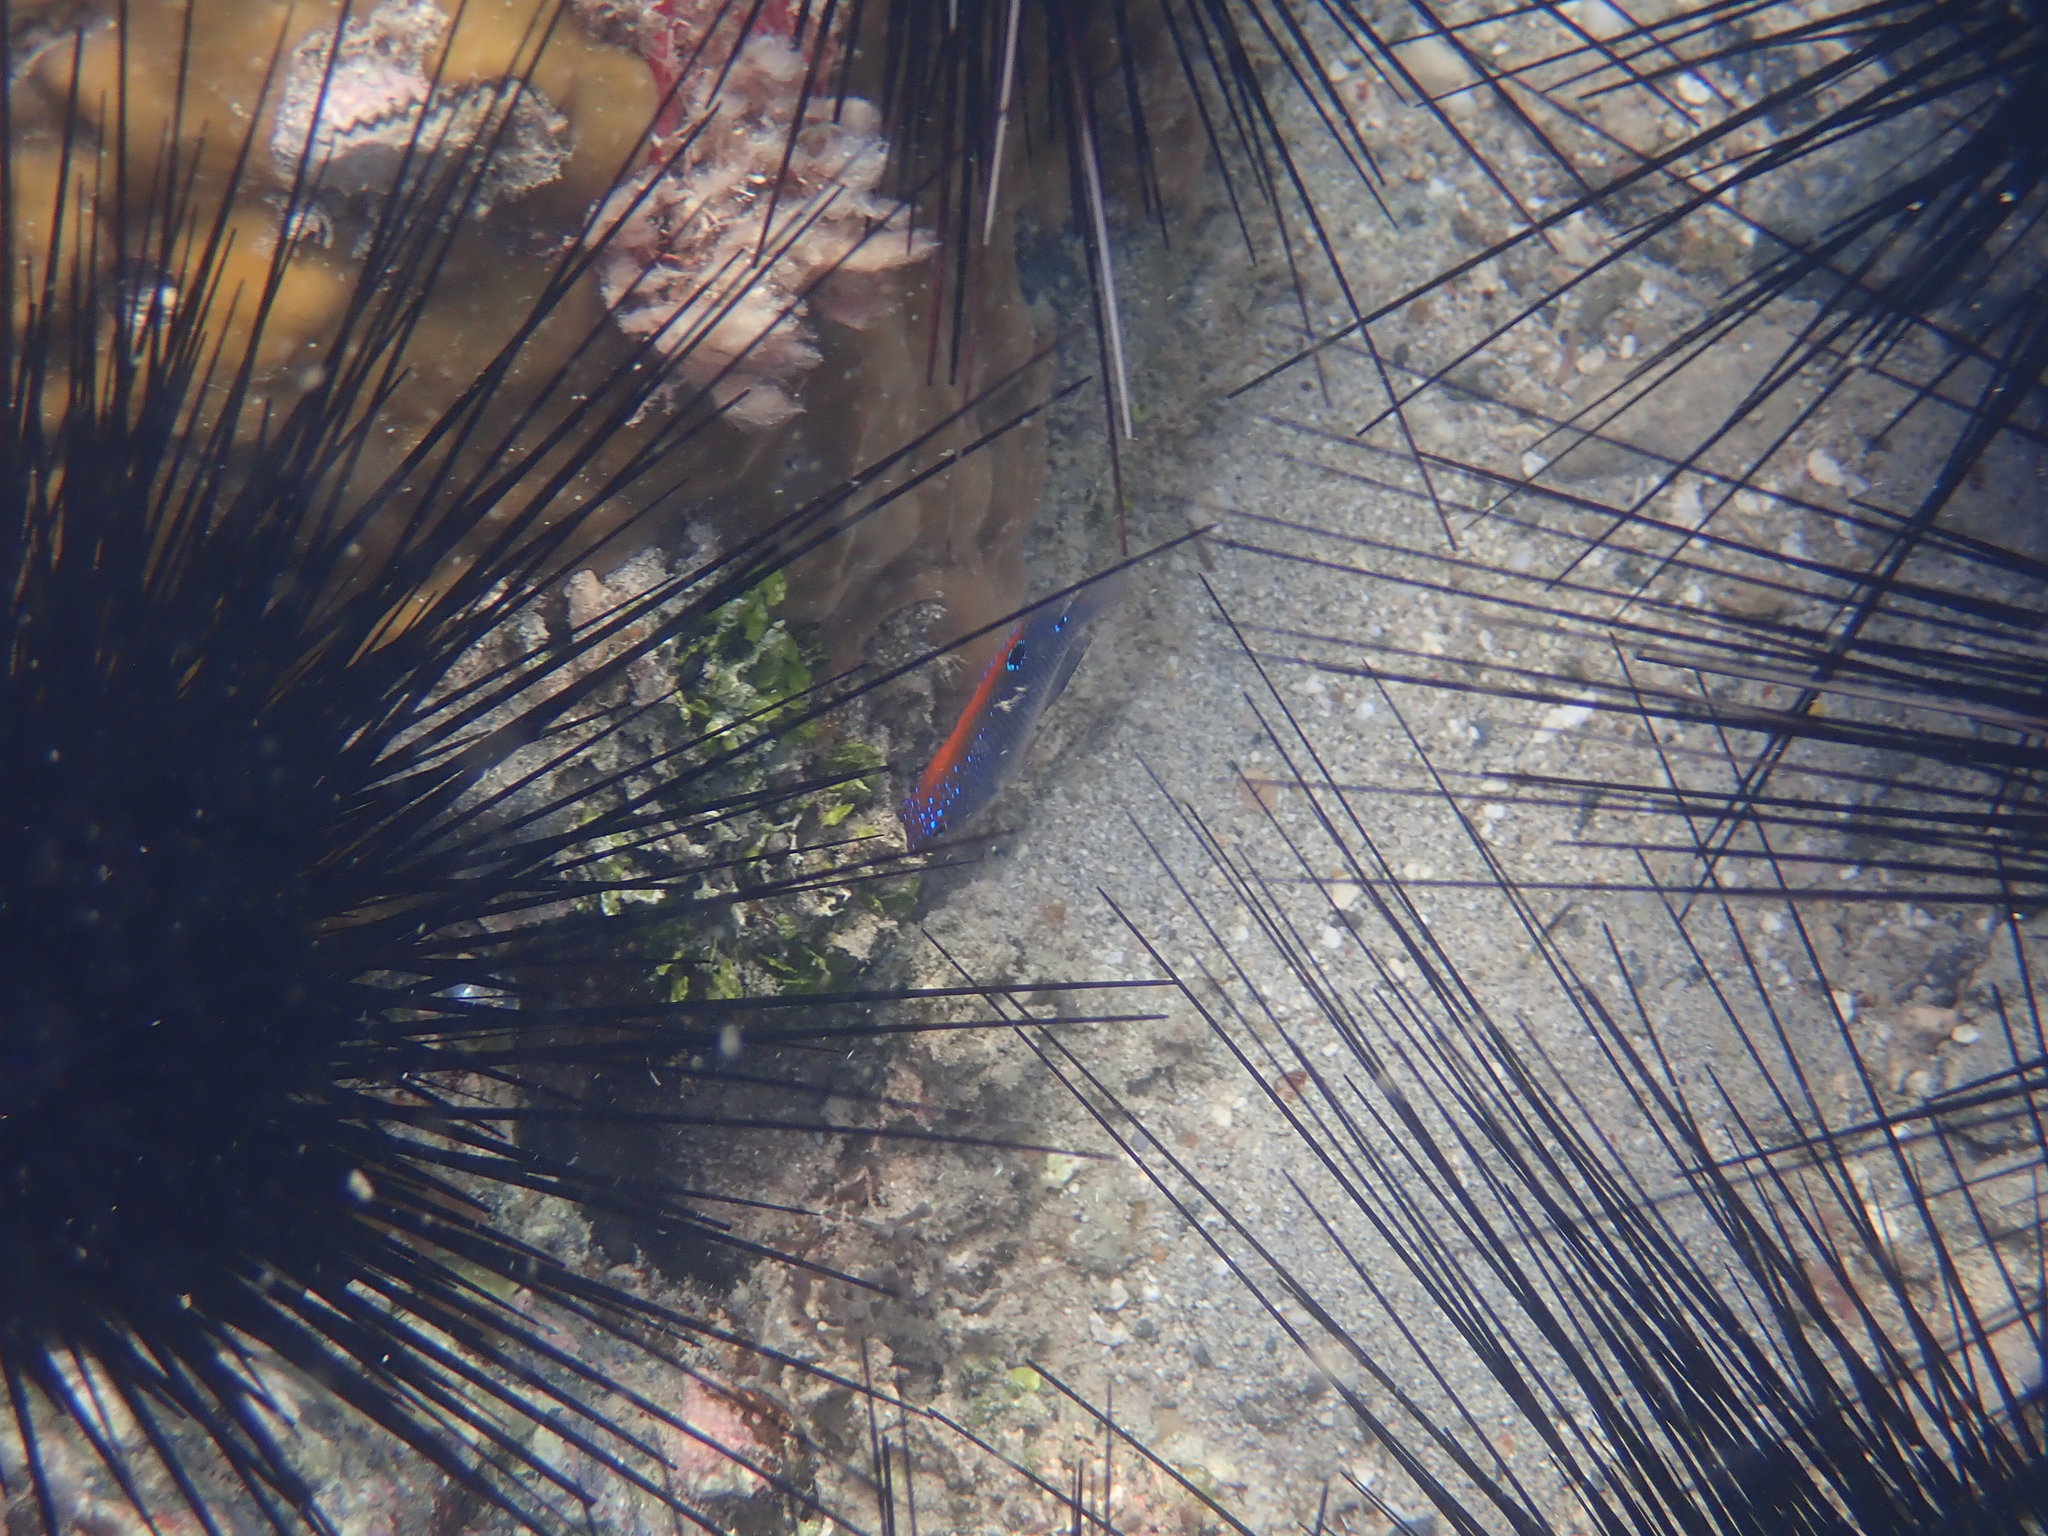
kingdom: Animalia
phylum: Chordata
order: Perciformes
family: Pomacentridae
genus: Stegastes
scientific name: Stegastes adustus
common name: Dusky damselfish
